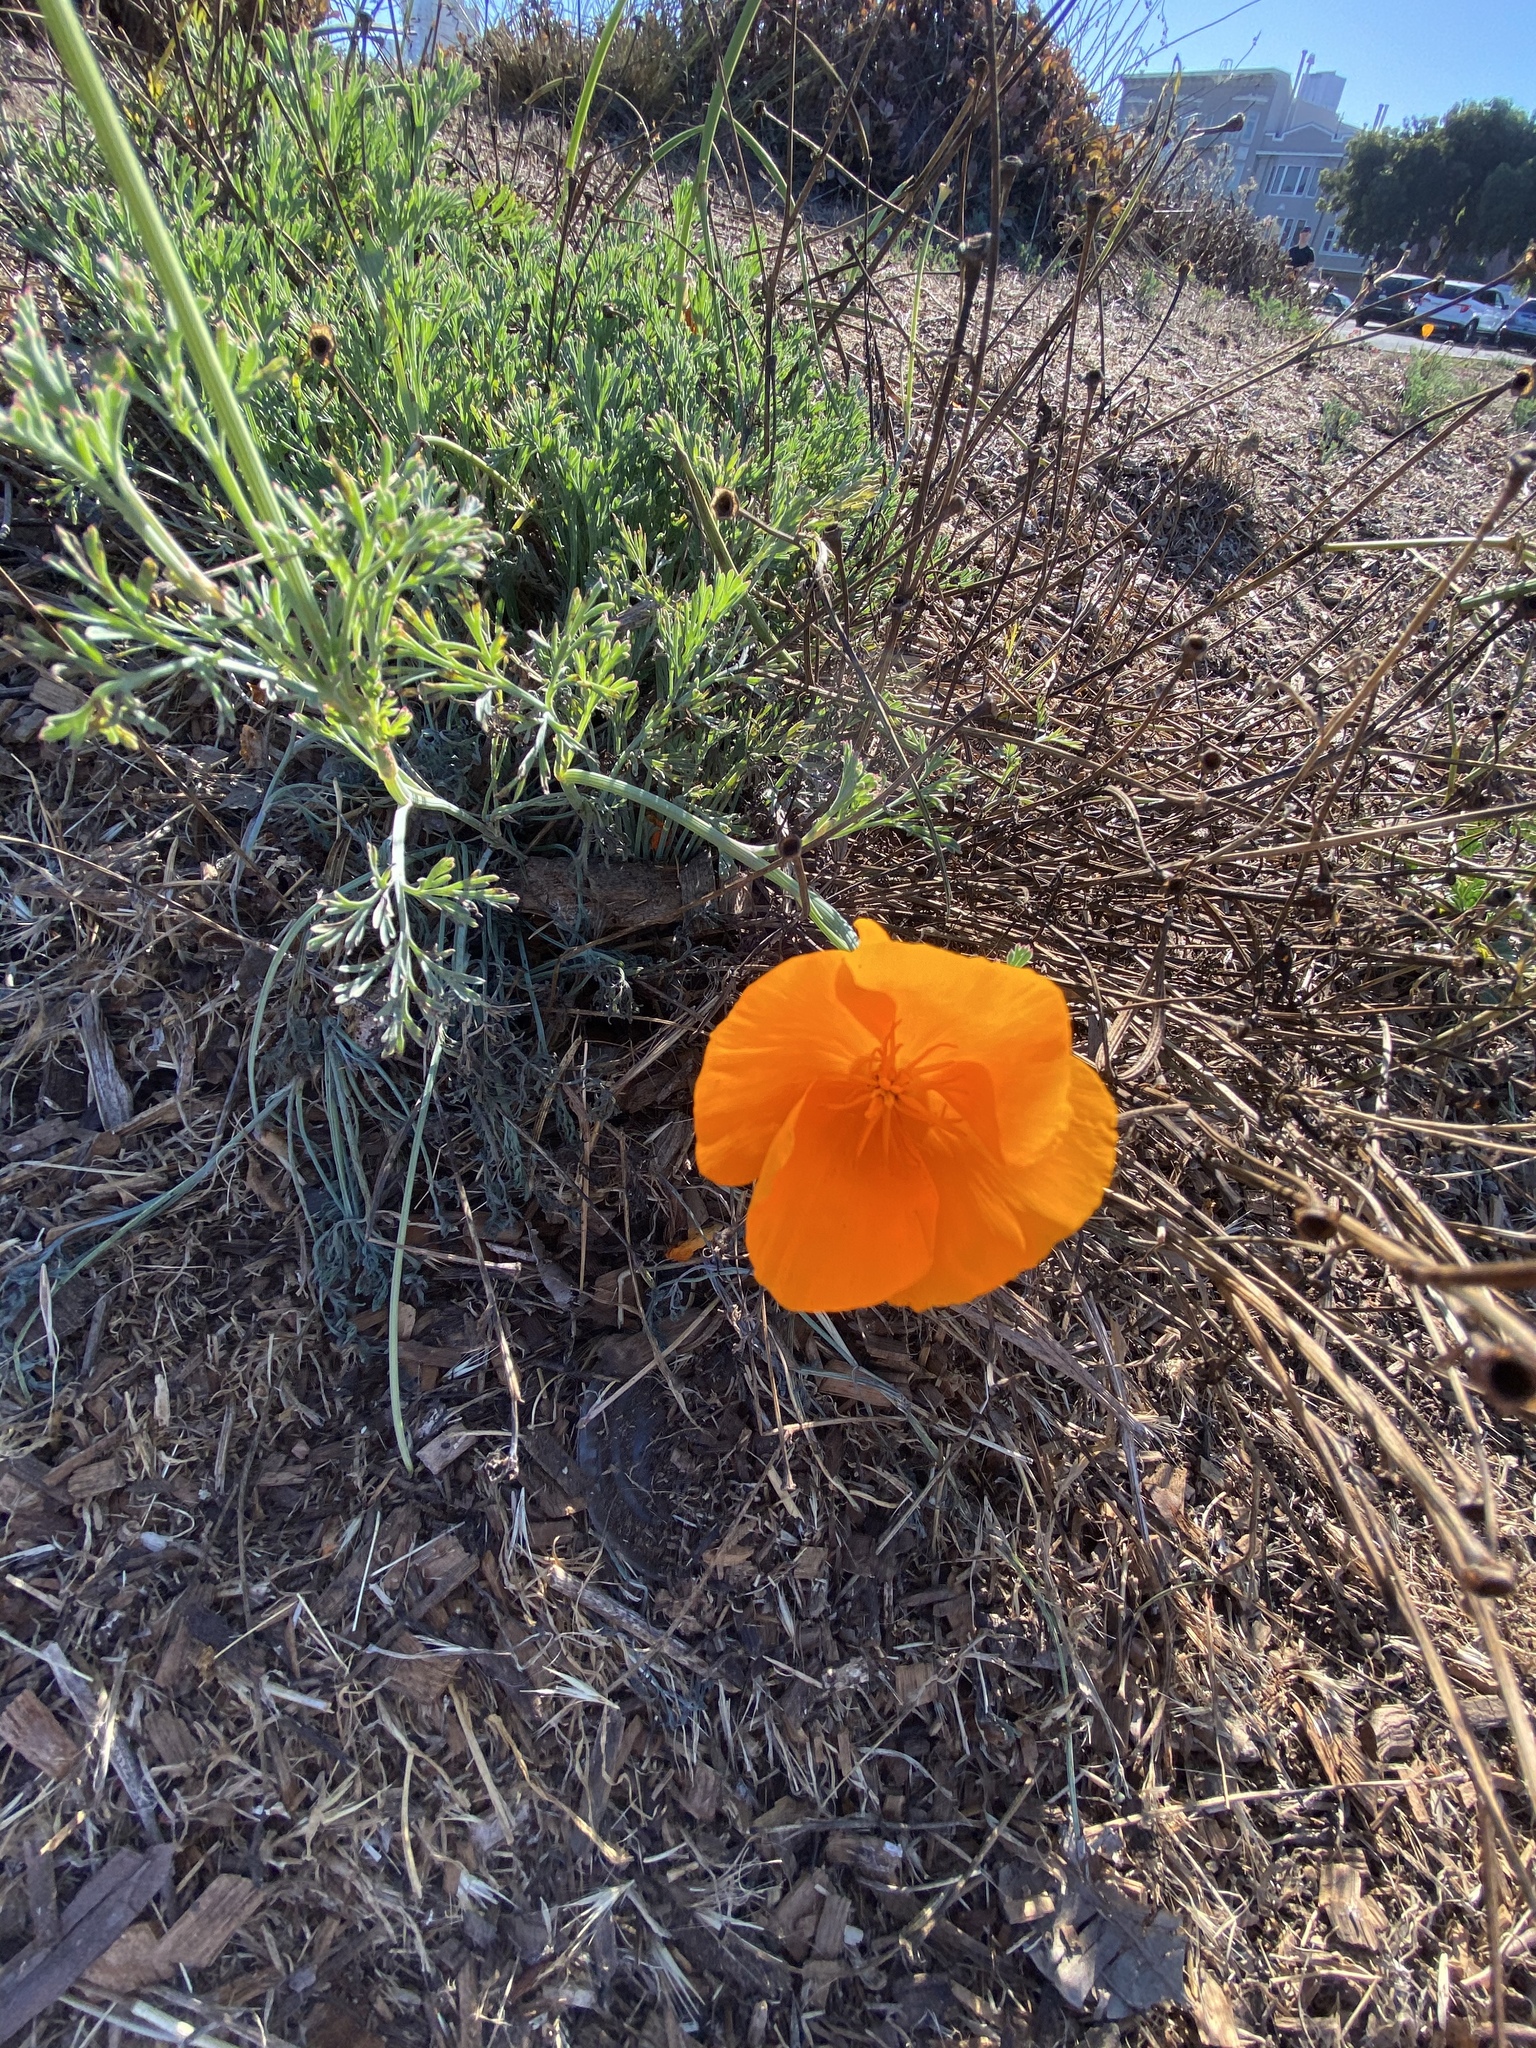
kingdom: Plantae
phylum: Tracheophyta
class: Magnoliopsida
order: Ranunculales
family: Papaveraceae
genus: Eschscholzia
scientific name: Eschscholzia californica
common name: California poppy
